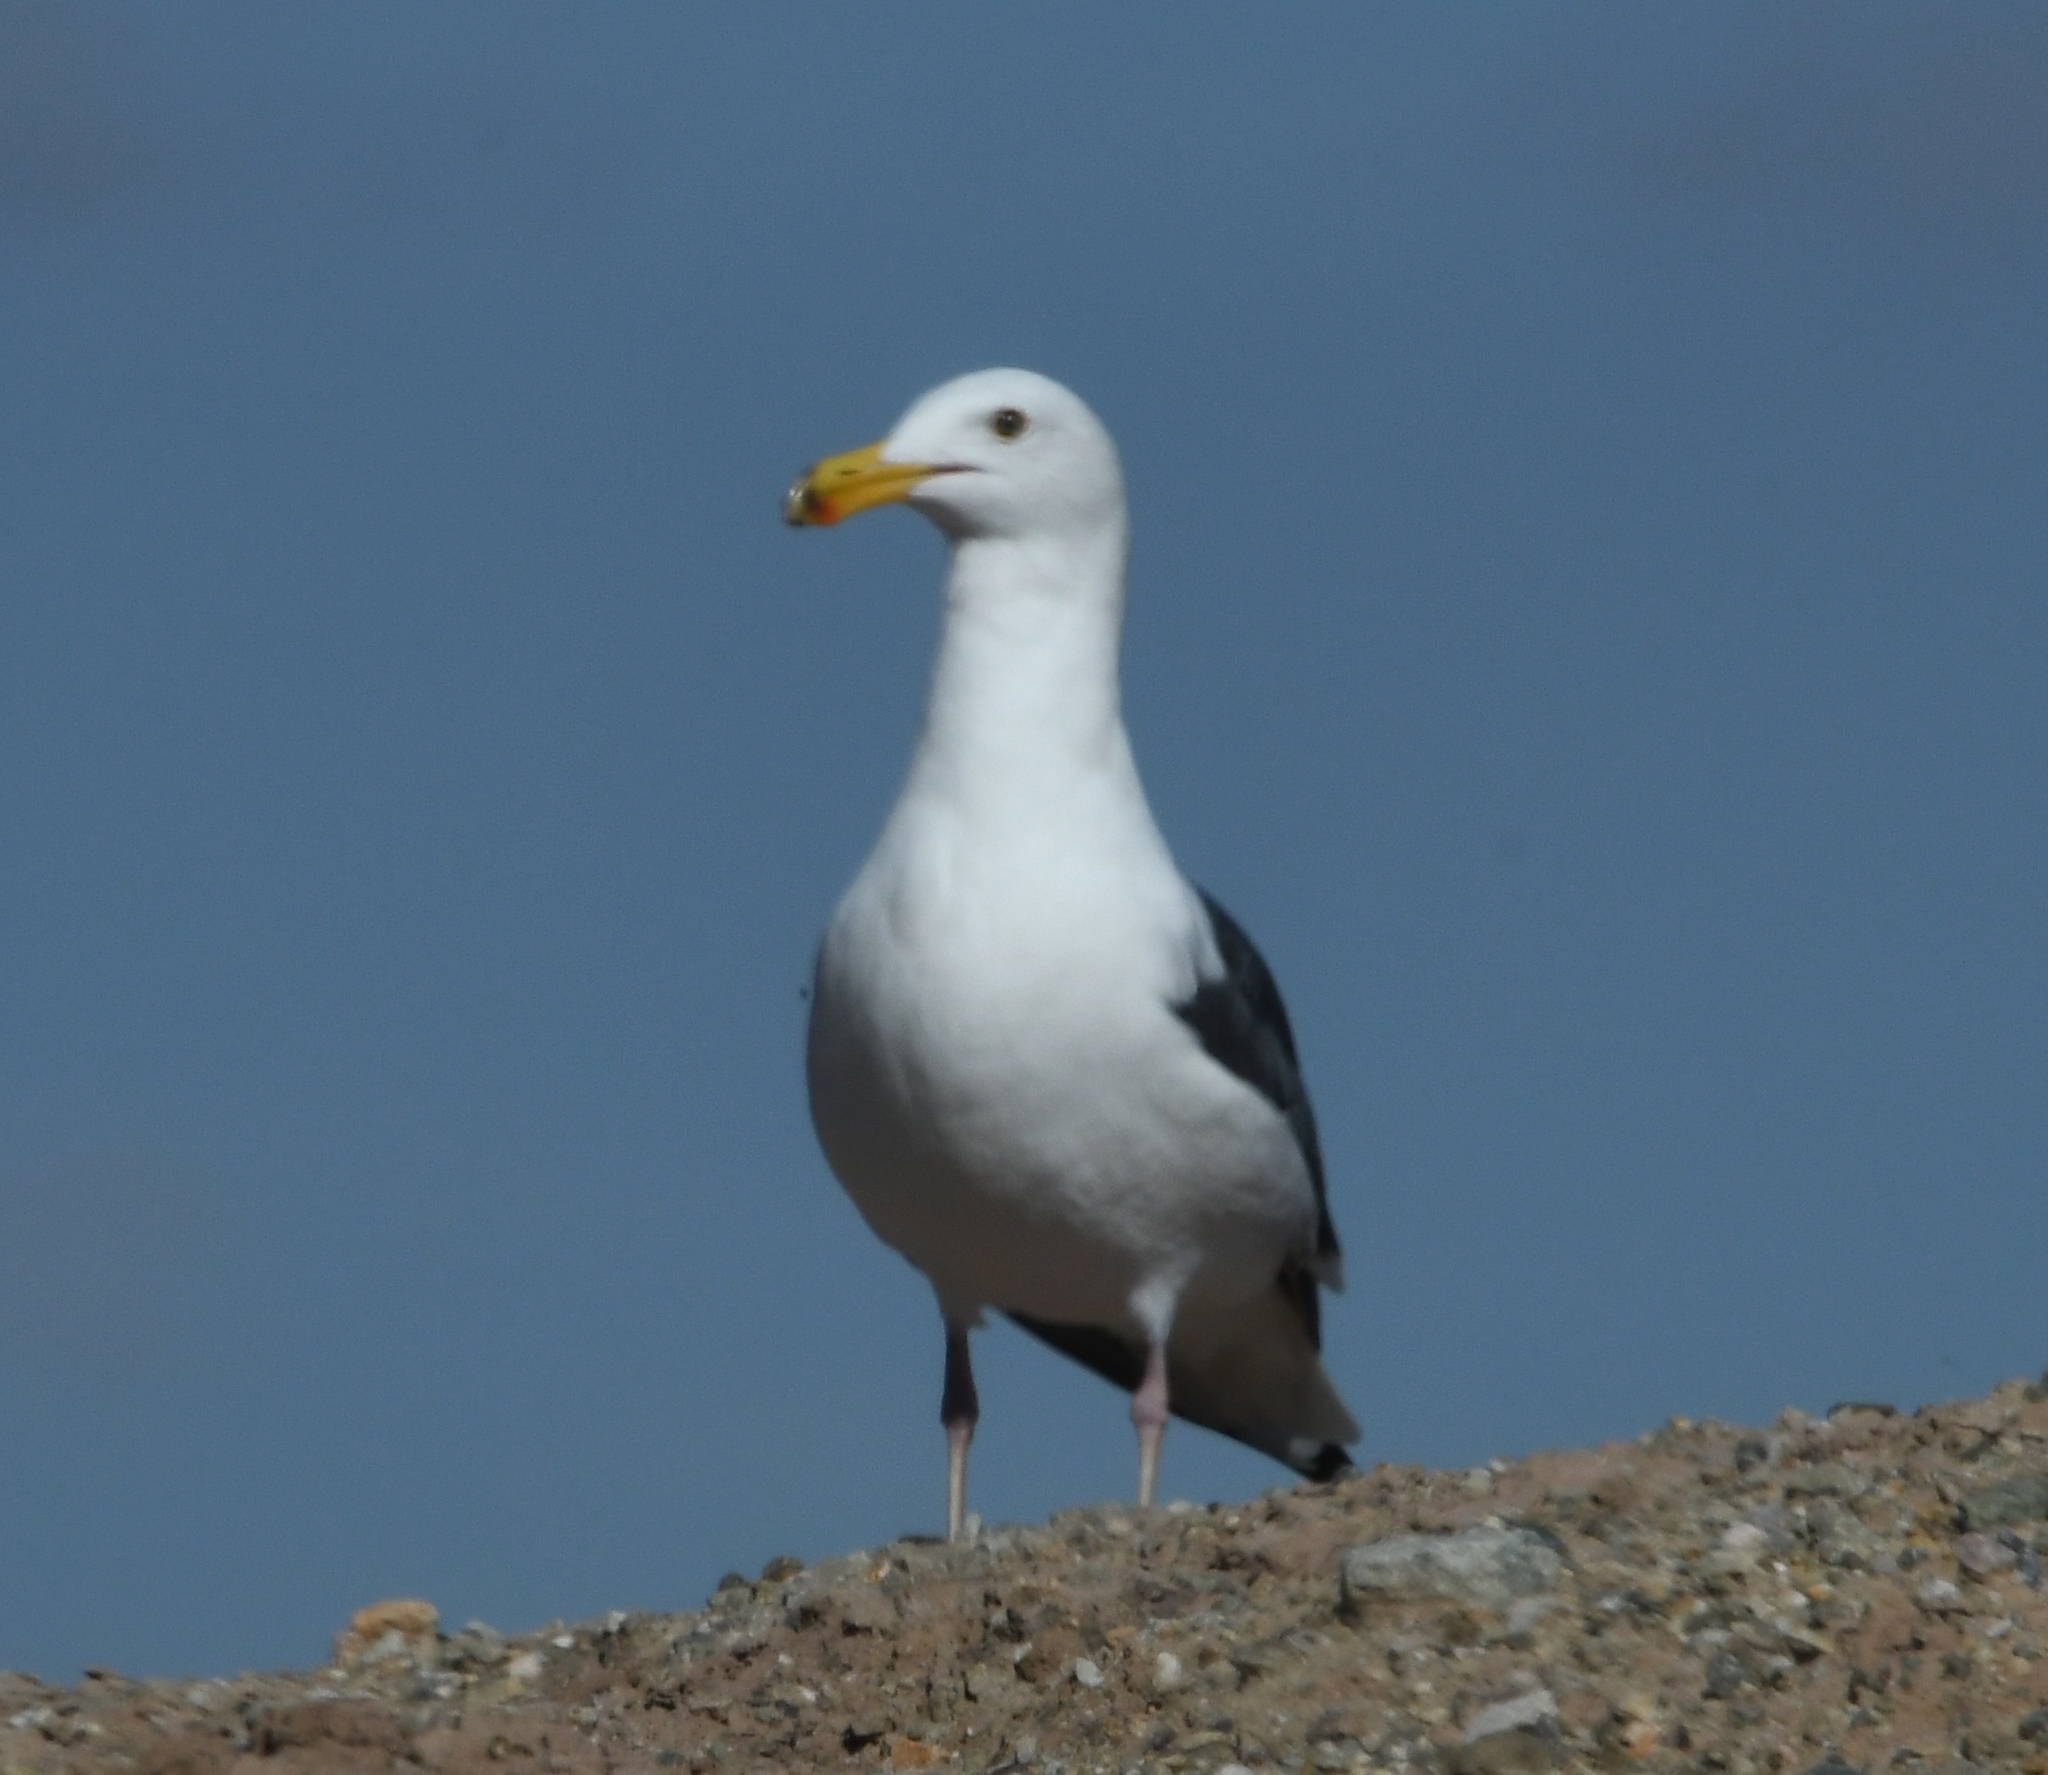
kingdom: Animalia
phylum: Chordata
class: Aves
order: Charadriiformes
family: Laridae
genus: Larus
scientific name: Larus occidentalis
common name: Western gull
